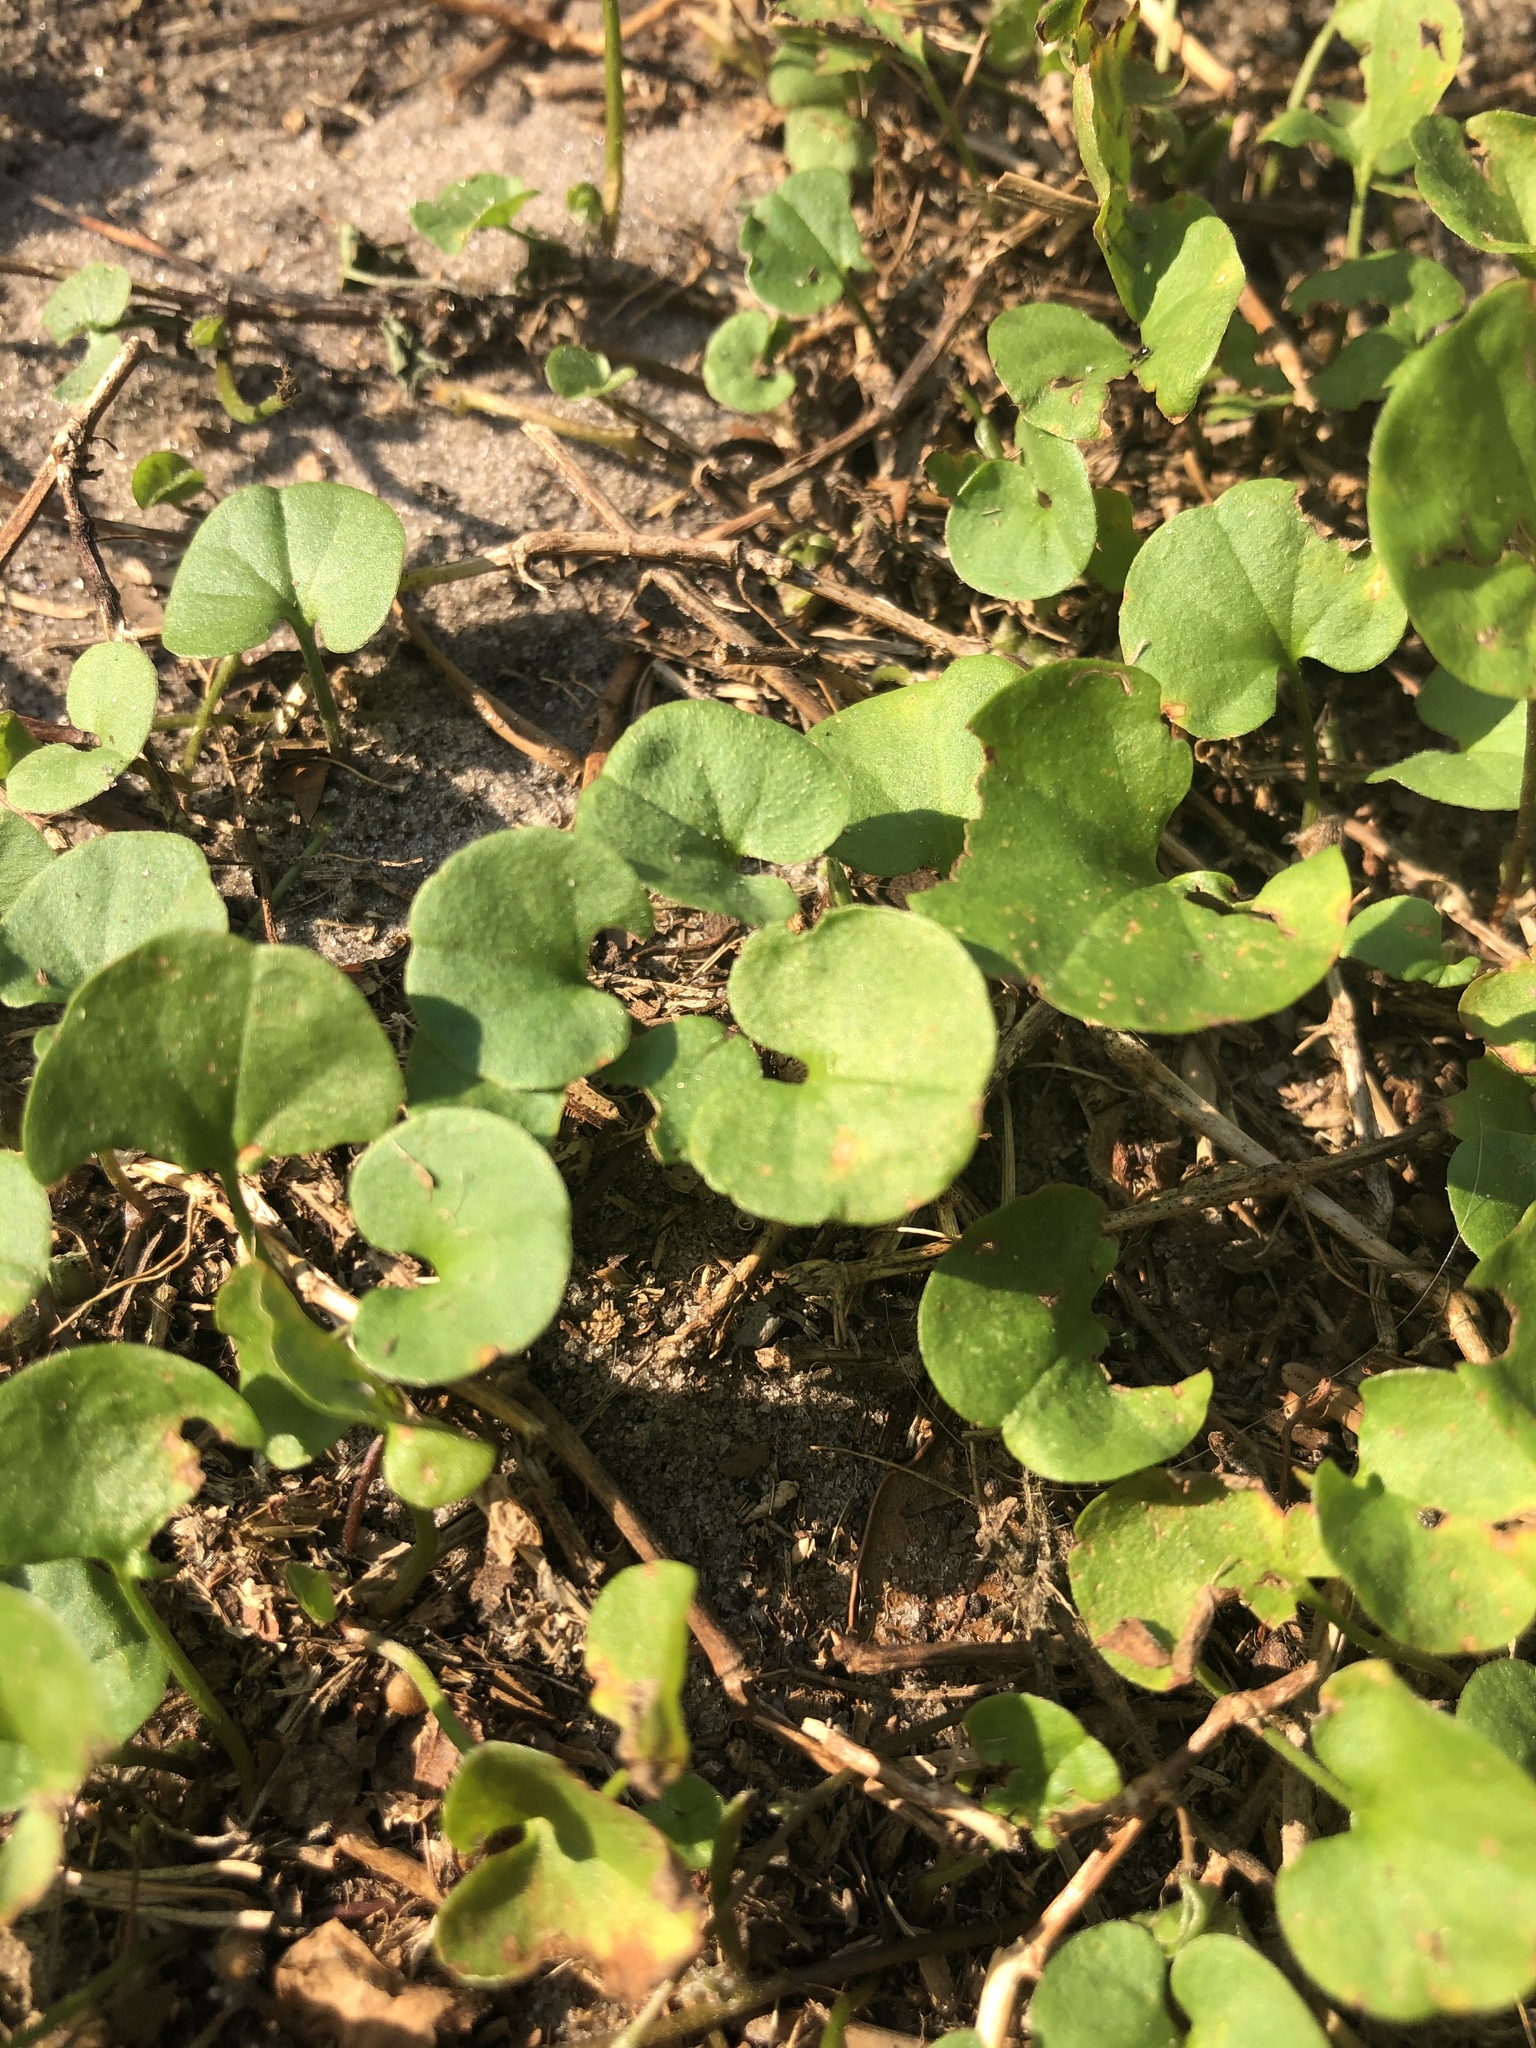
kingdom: Plantae
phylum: Tracheophyta
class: Magnoliopsida
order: Solanales
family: Convolvulaceae
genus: Dichondra
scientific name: Dichondra carolinensis
